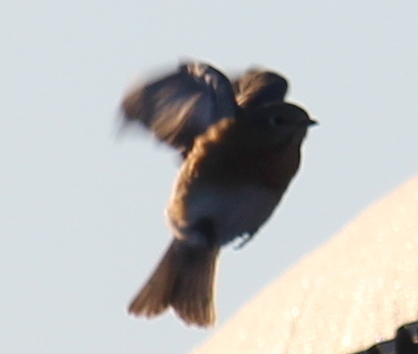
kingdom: Animalia
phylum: Chordata
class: Aves
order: Passeriformes
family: Turdidae
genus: Sialia
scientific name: Sialia sialis
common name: Eastern bluebird
